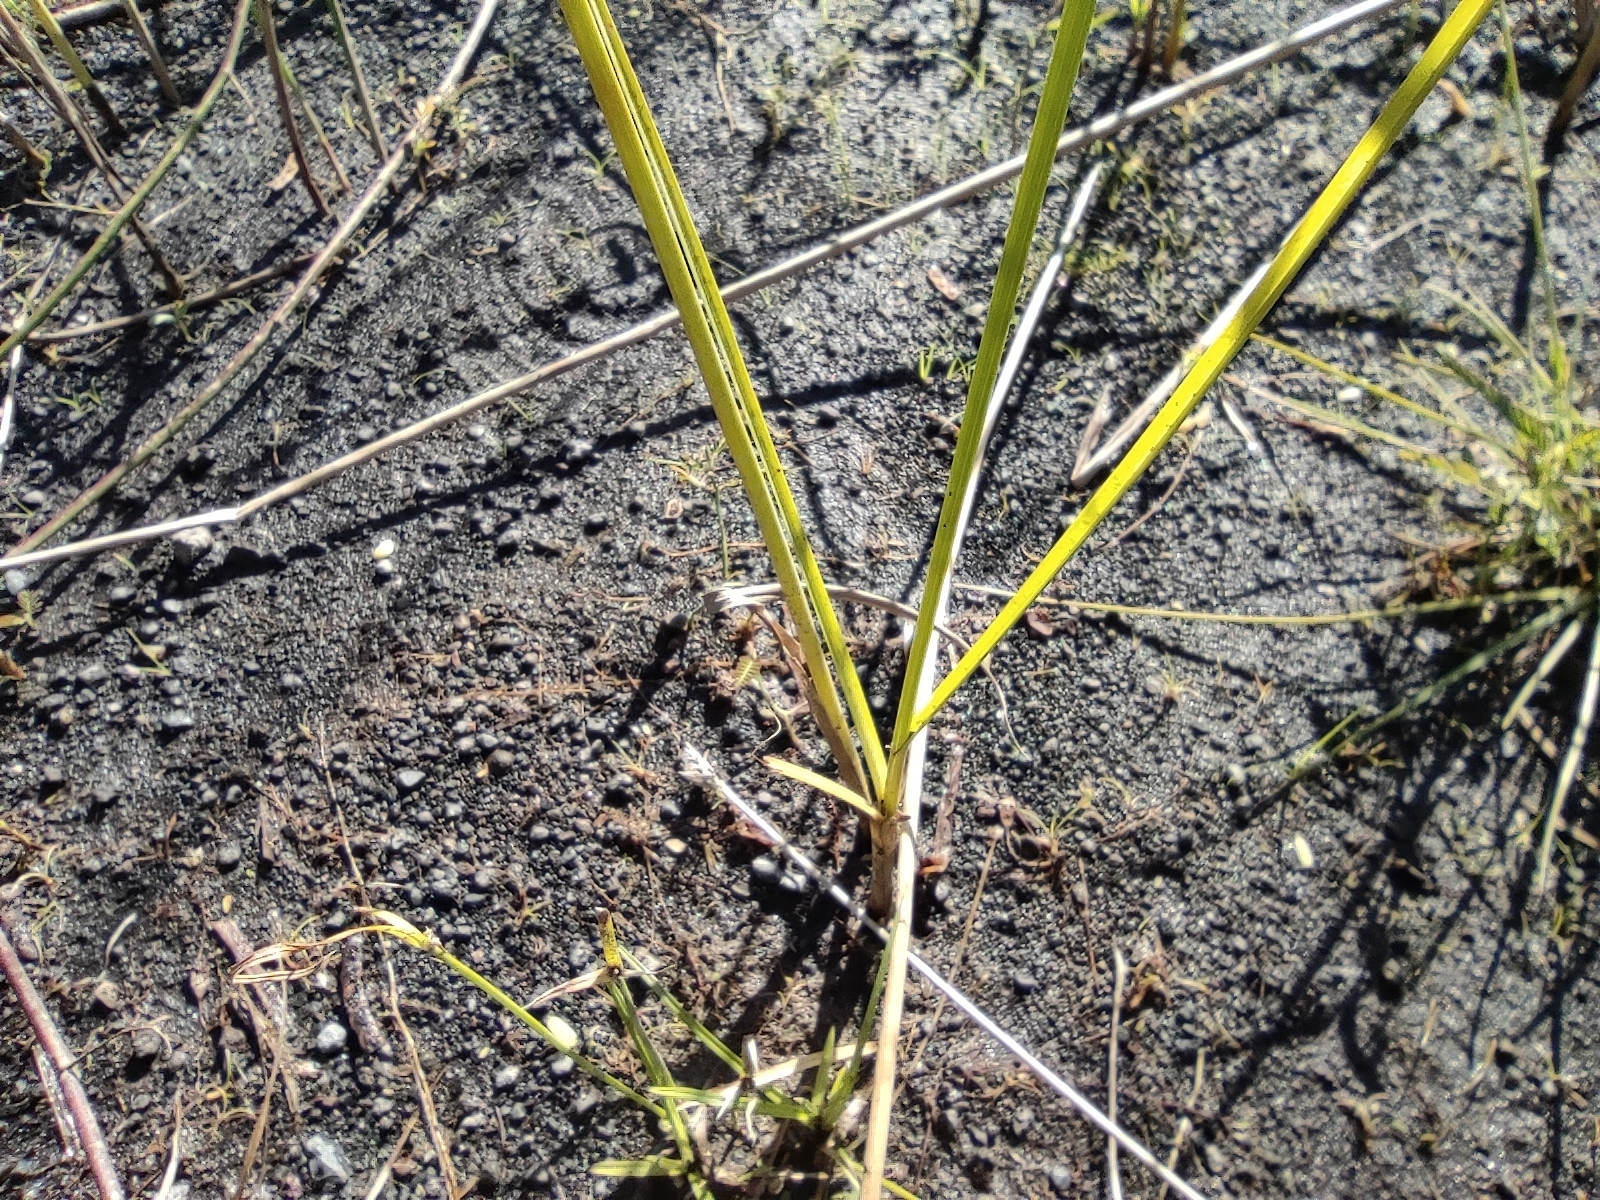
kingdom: Plantae
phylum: Tracheophyta
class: Liliopsida
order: Poales
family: Cyperaceae
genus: Cyperus
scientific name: Cyperus polystachyos
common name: Bunchy flat sedge
